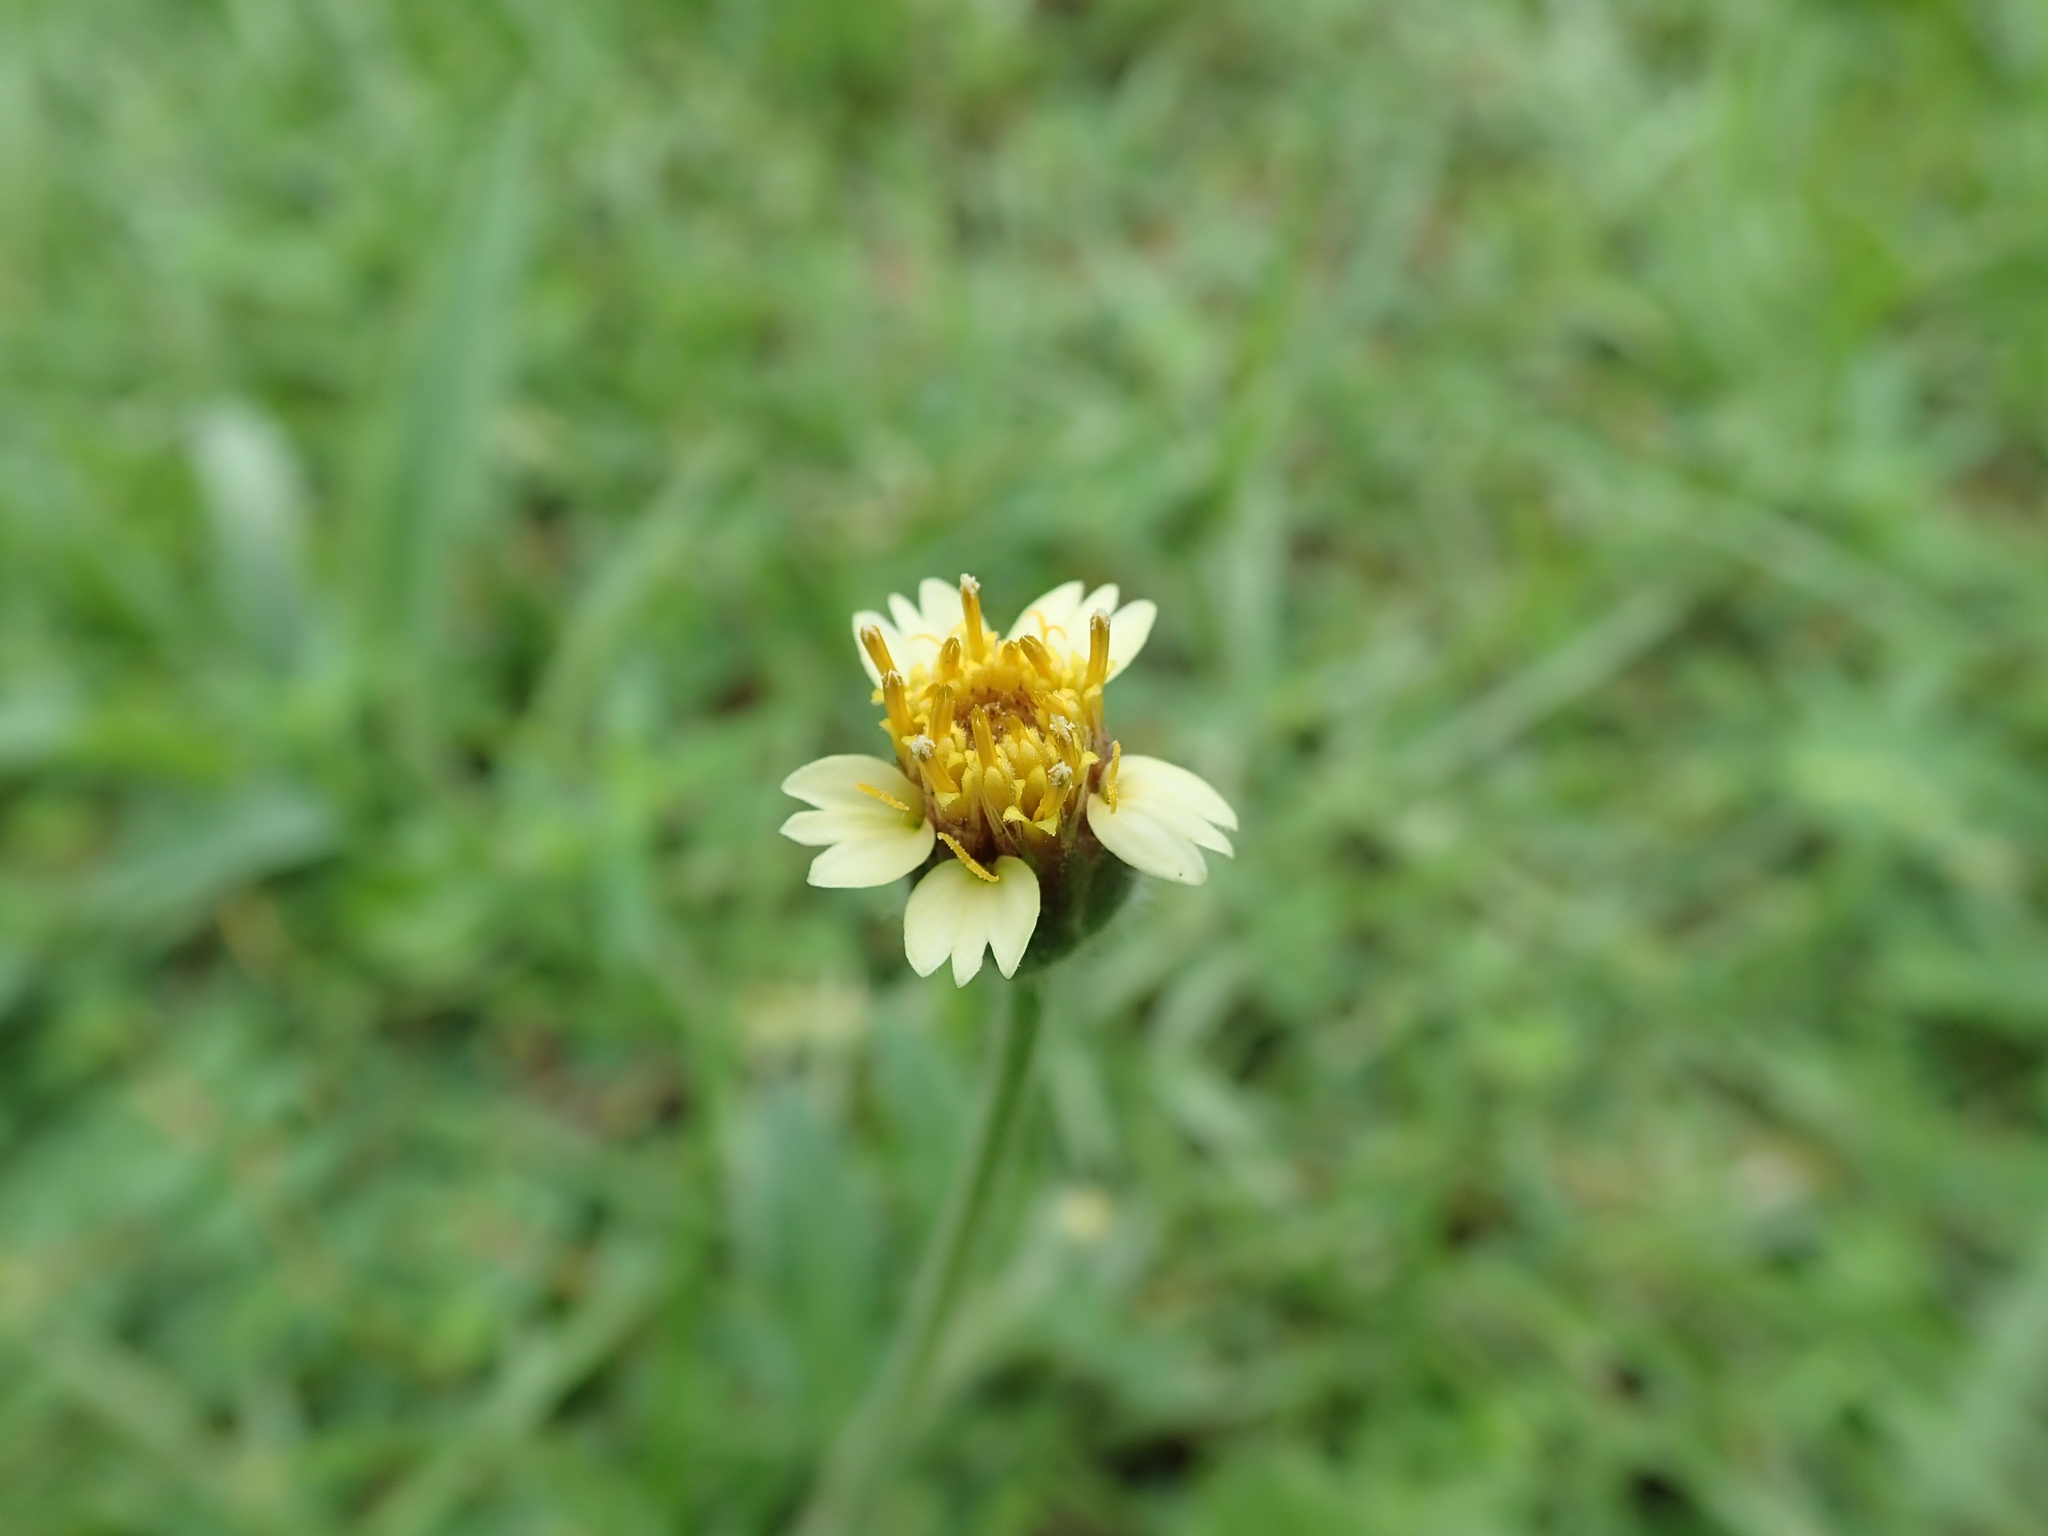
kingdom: Plantae
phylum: Tracheophyta
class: Magnoliopsida
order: Asterales
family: Asteraceae
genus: Tridax
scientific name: Tridax procumbens
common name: Coatbuttons
